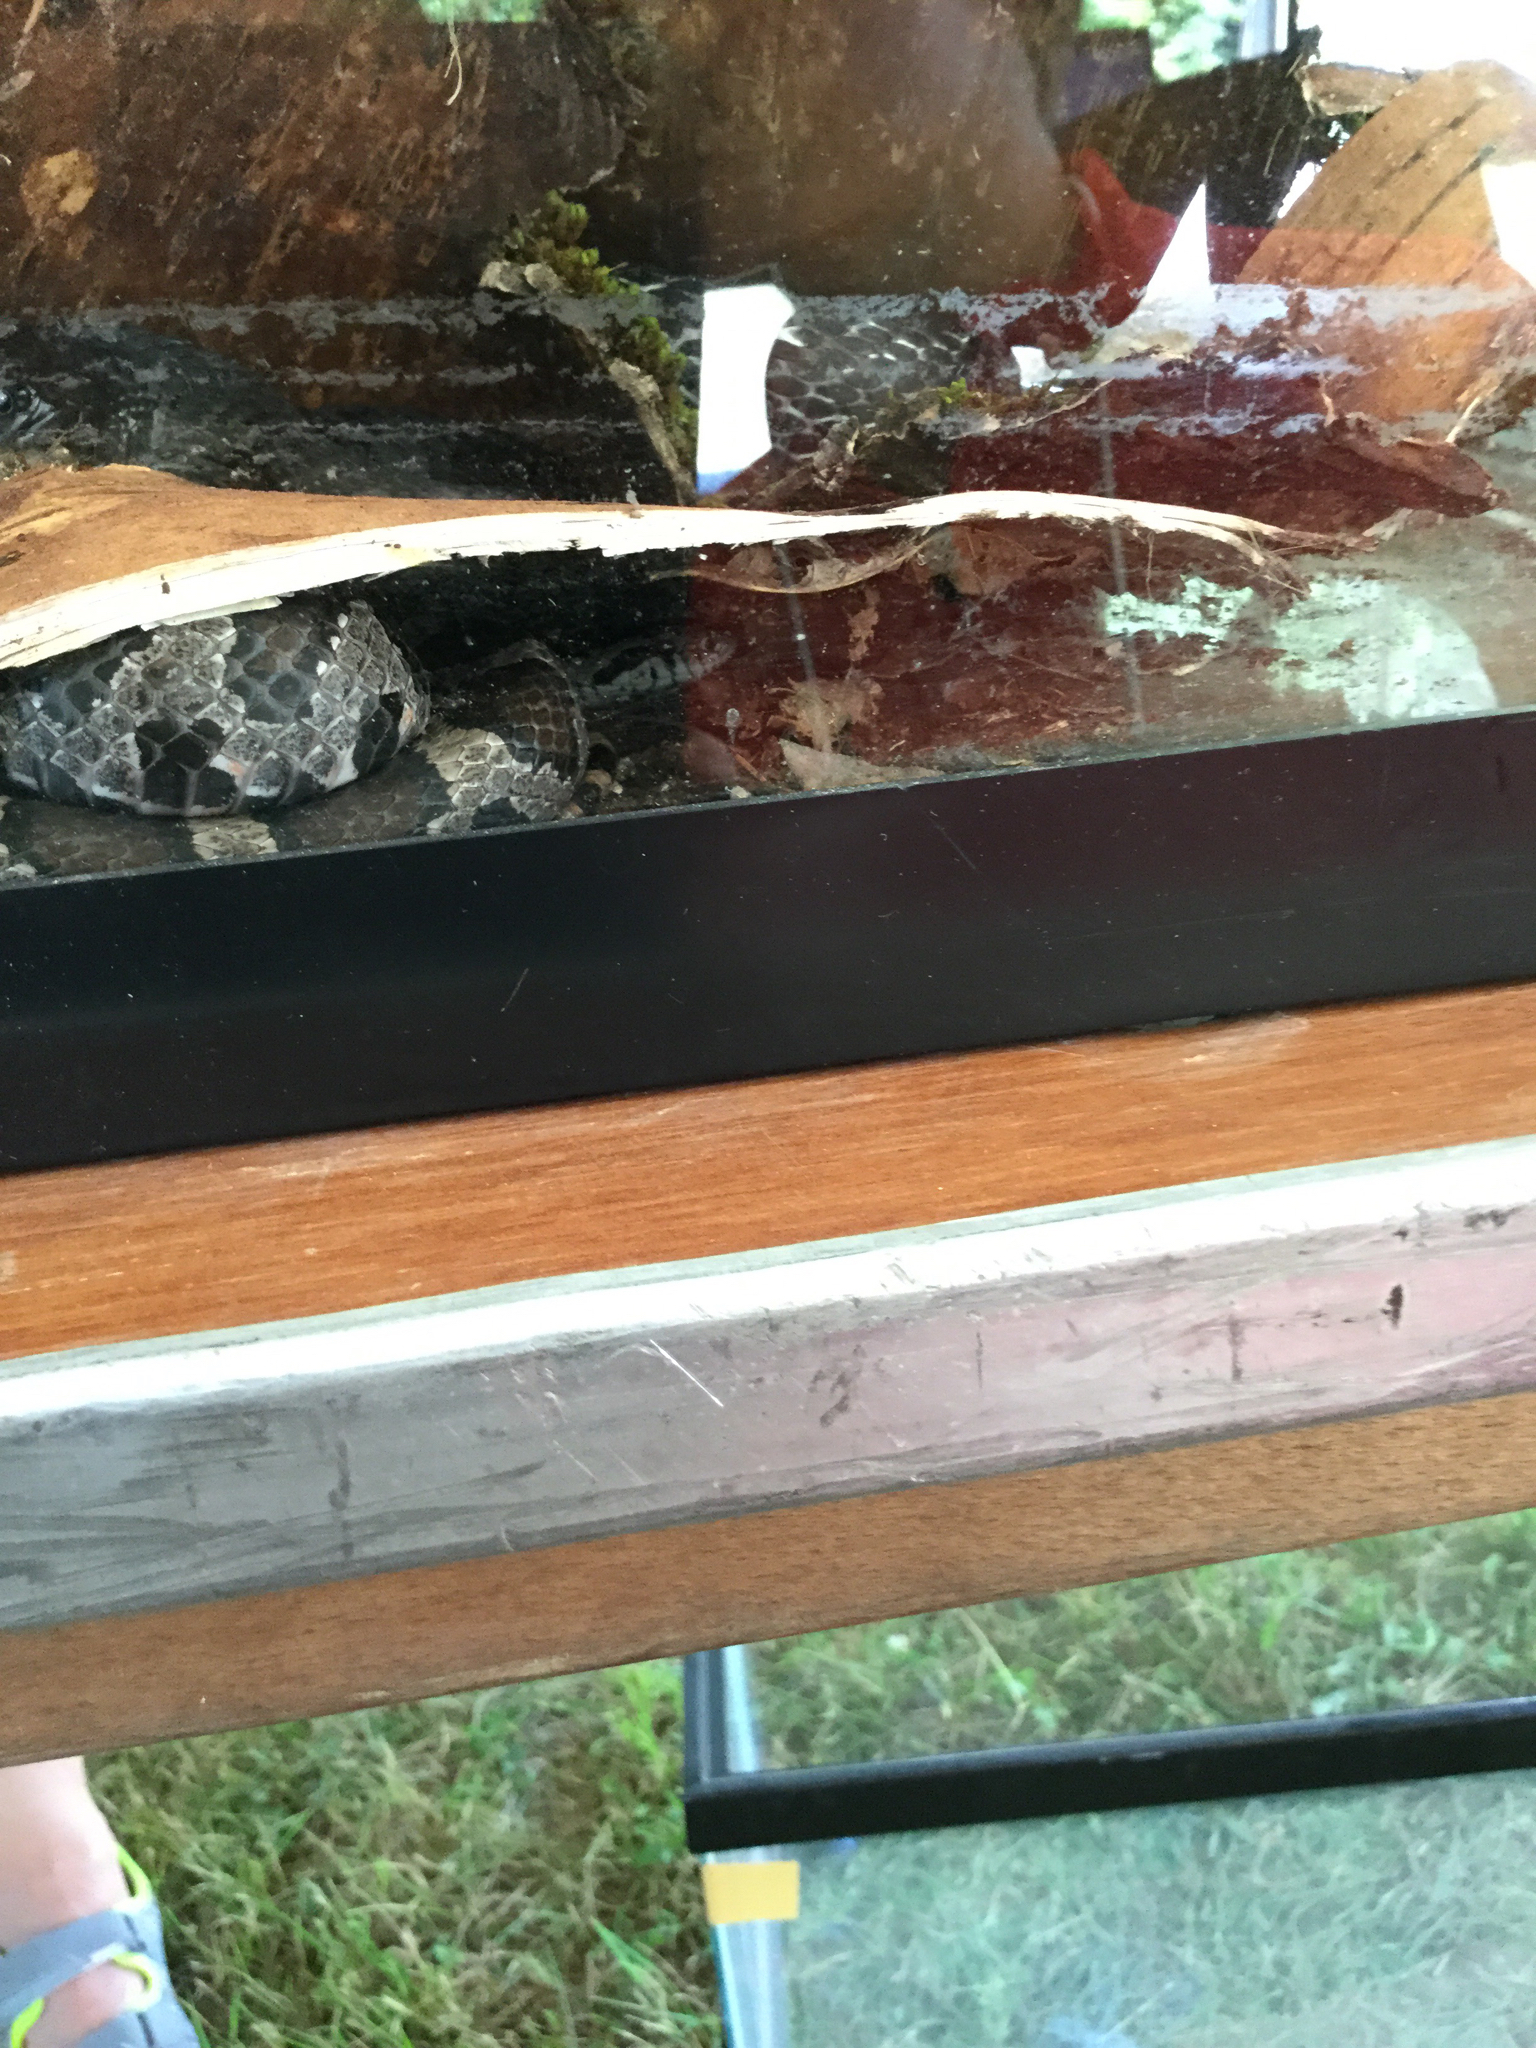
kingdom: Animalia
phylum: Chordata
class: Squamata
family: Colubridae
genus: Lampropeltis
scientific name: Lampropeltis triangulum
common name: Eastern milksnake
